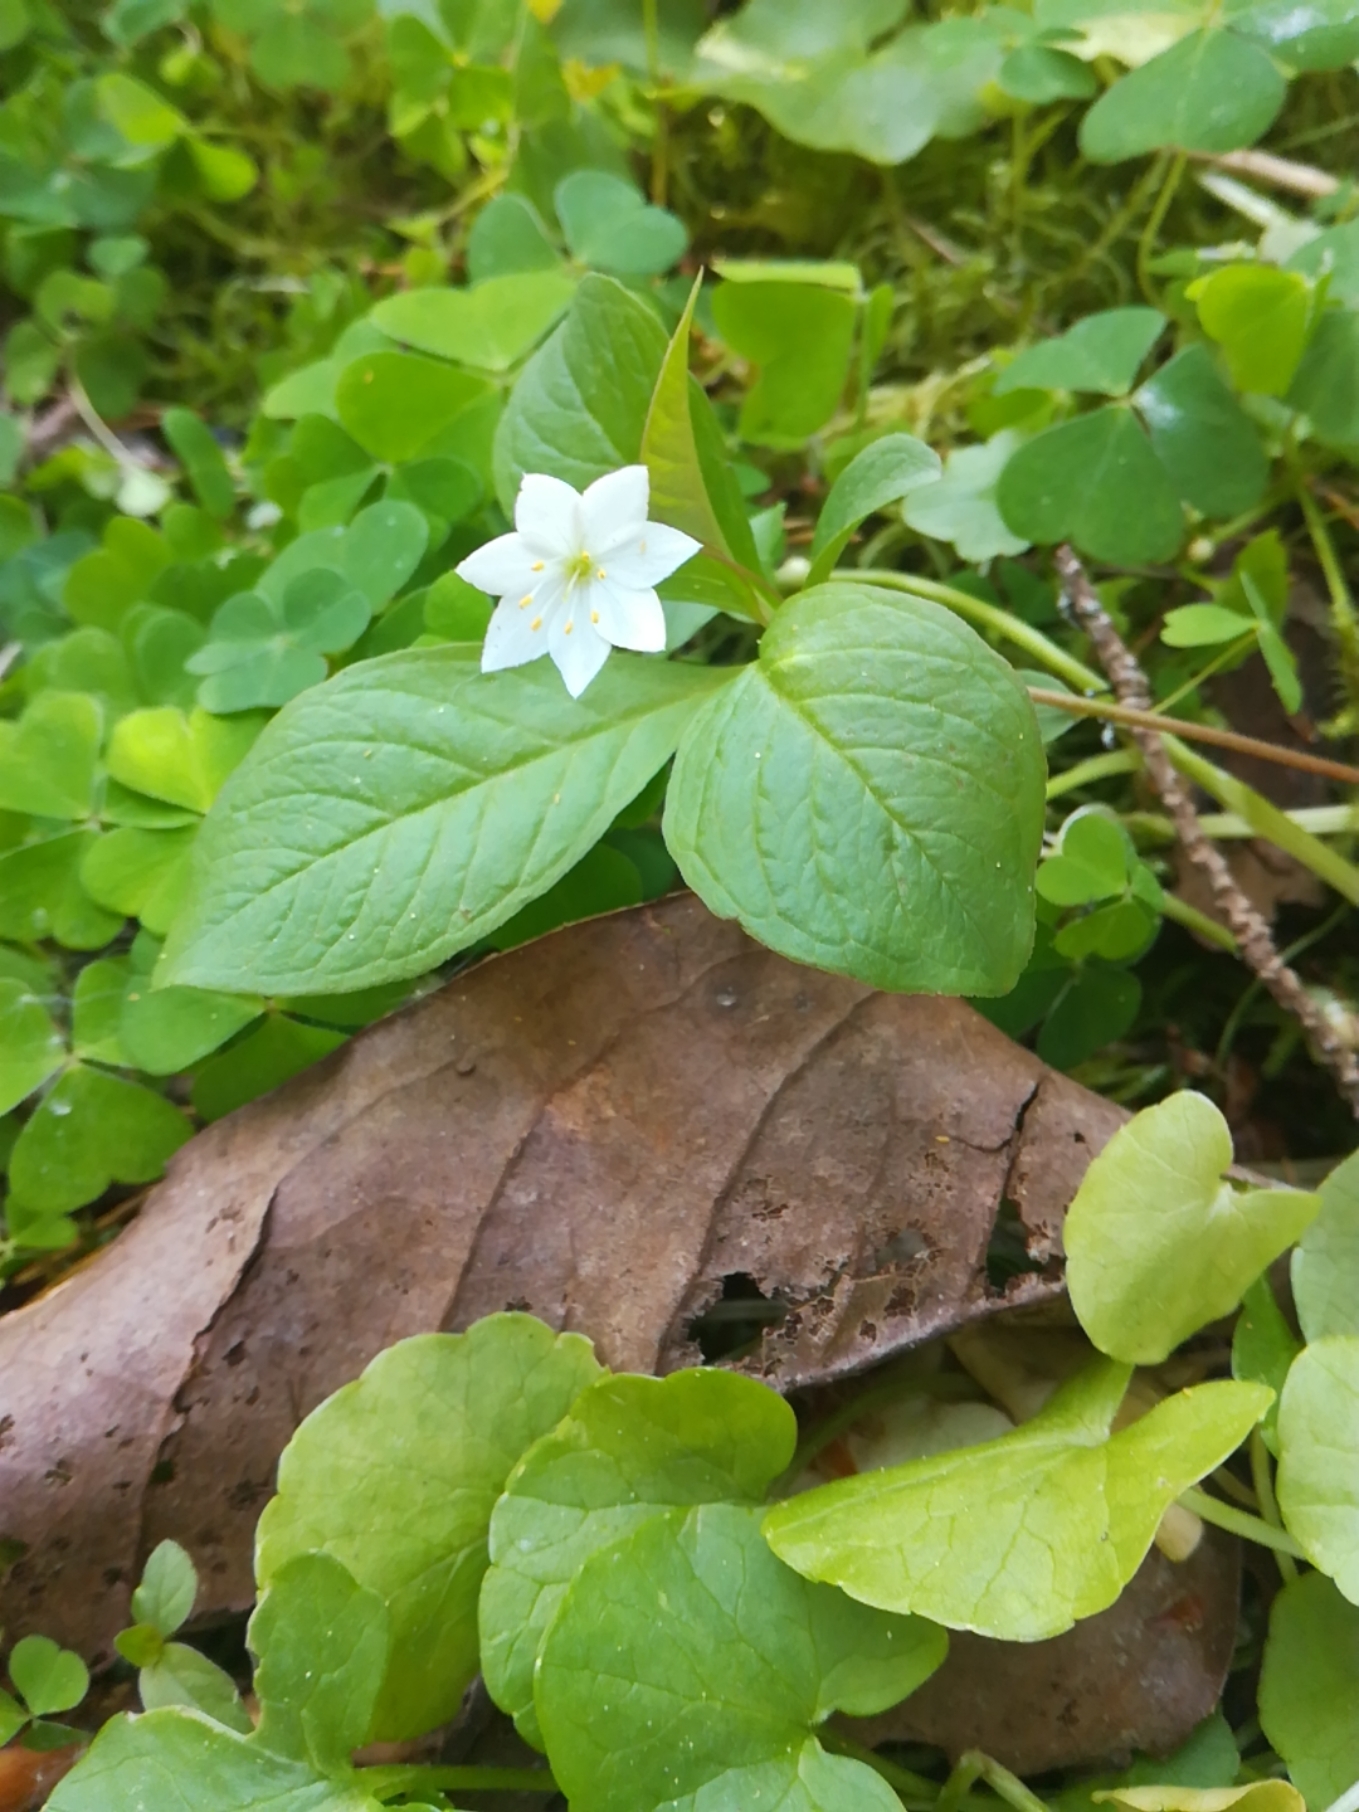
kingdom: Plantae
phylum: Tracheophyta
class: Magnoliopsida
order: Ericales
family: Primulaceae
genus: Lysimachia
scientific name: Lysimachia europaea
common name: Arctic starflower
